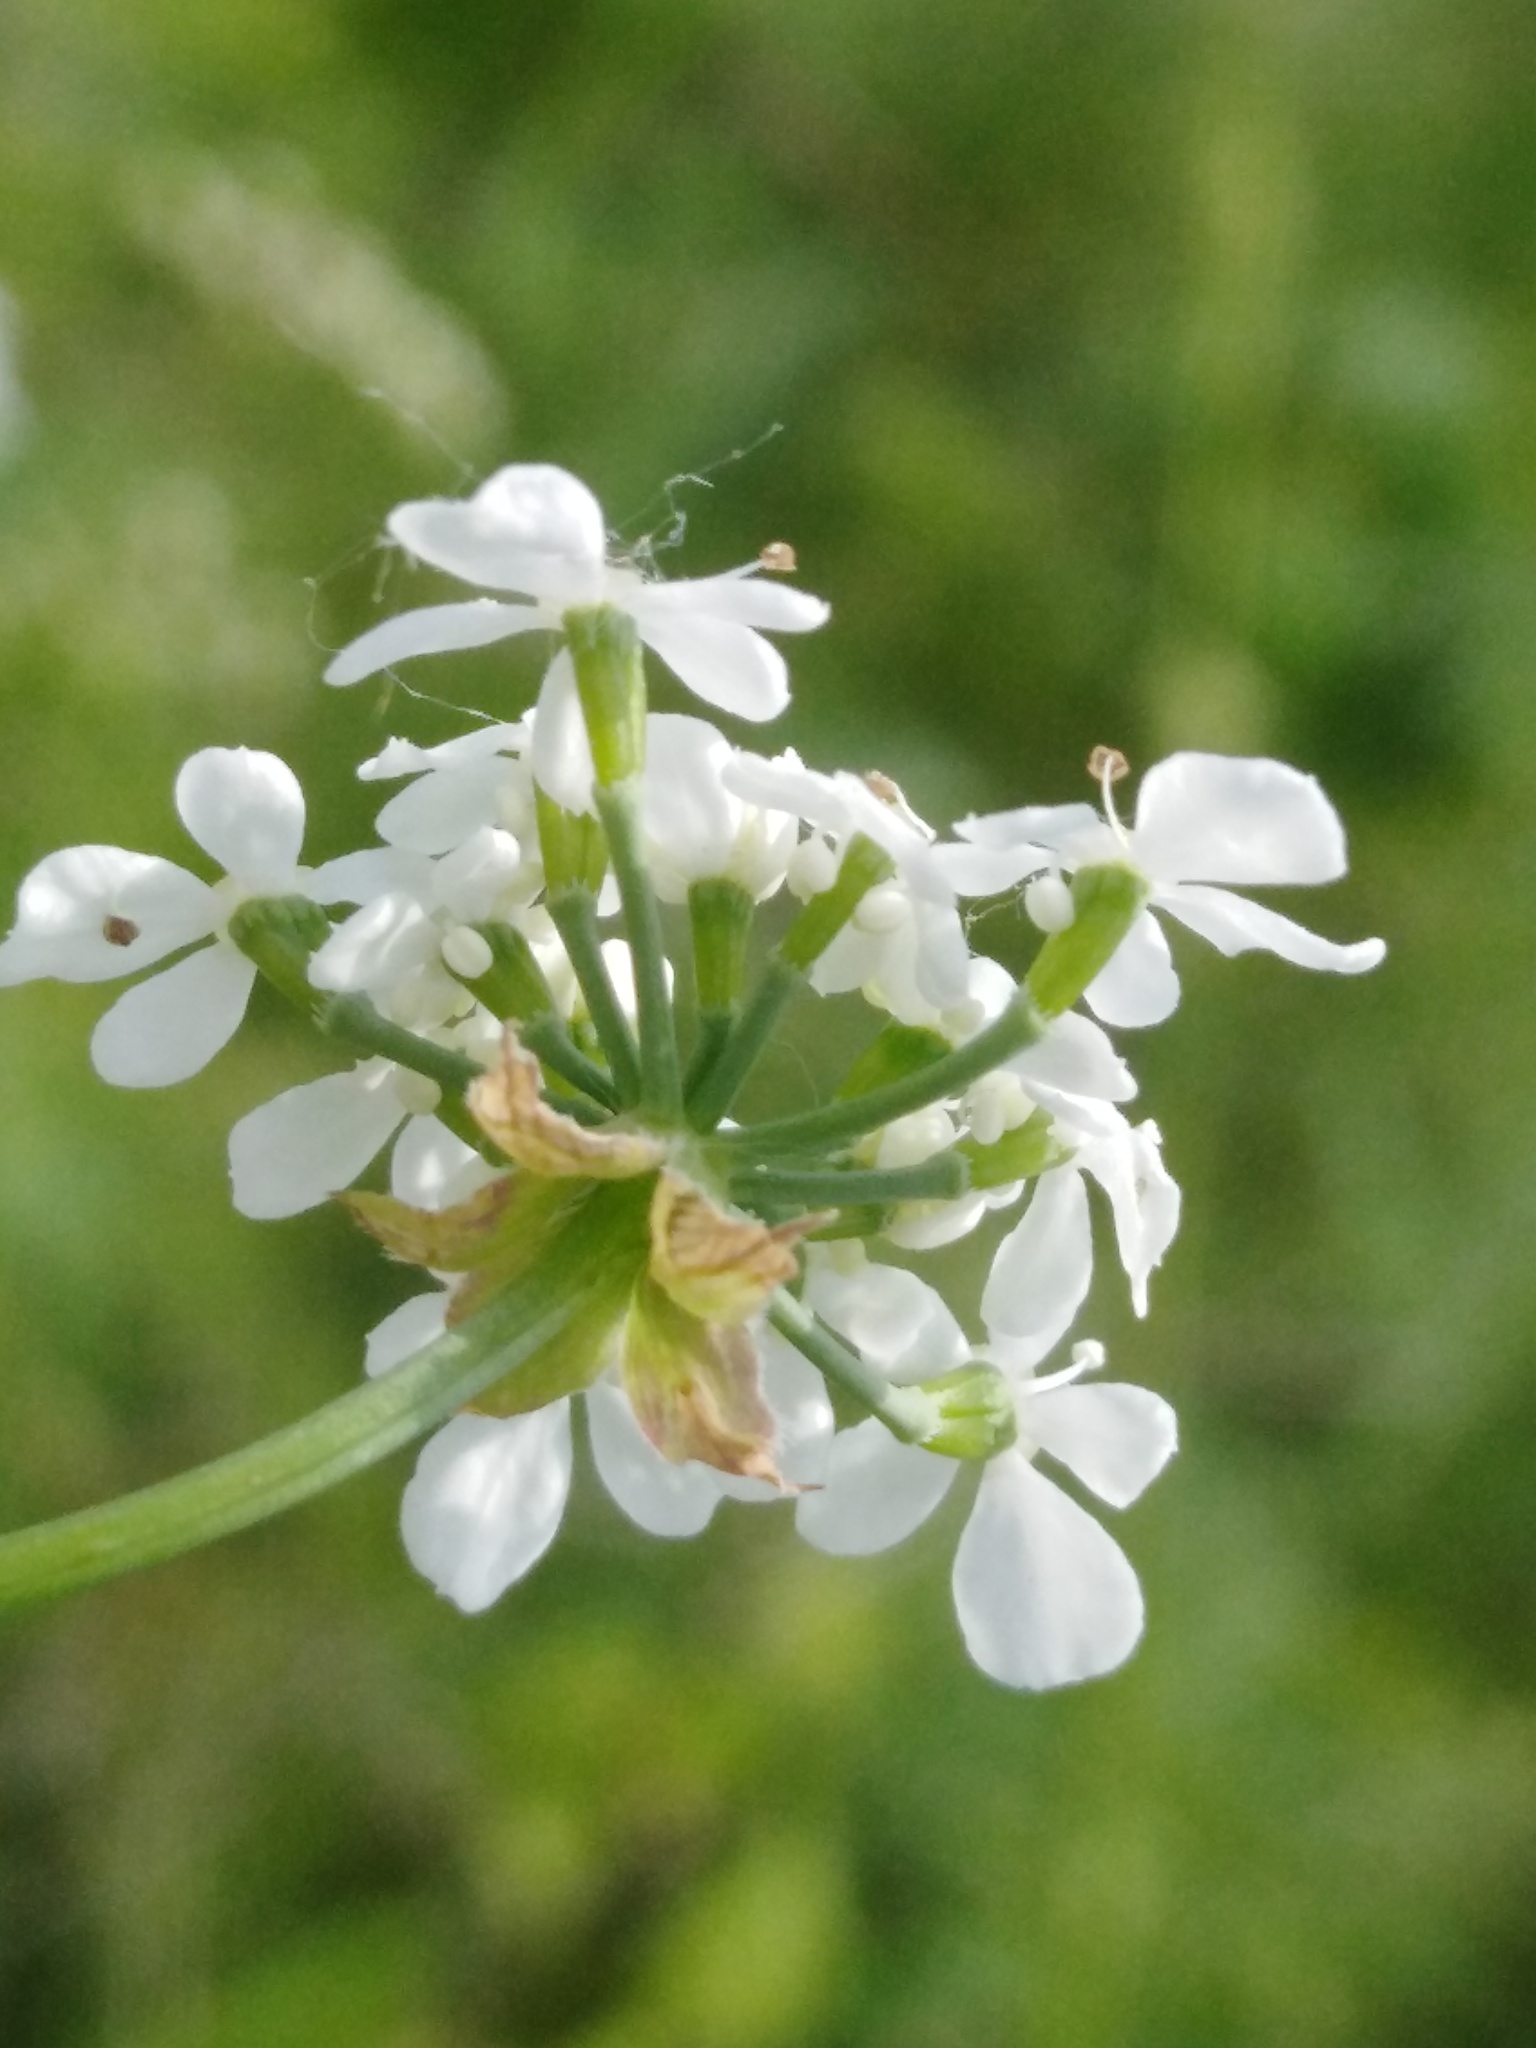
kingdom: Plantae
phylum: Tracheophyta
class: Magnoliopsida
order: Apiales
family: Apiaceae
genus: Anthriscus
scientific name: Anthriscus sylvestris
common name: Cow parsley
